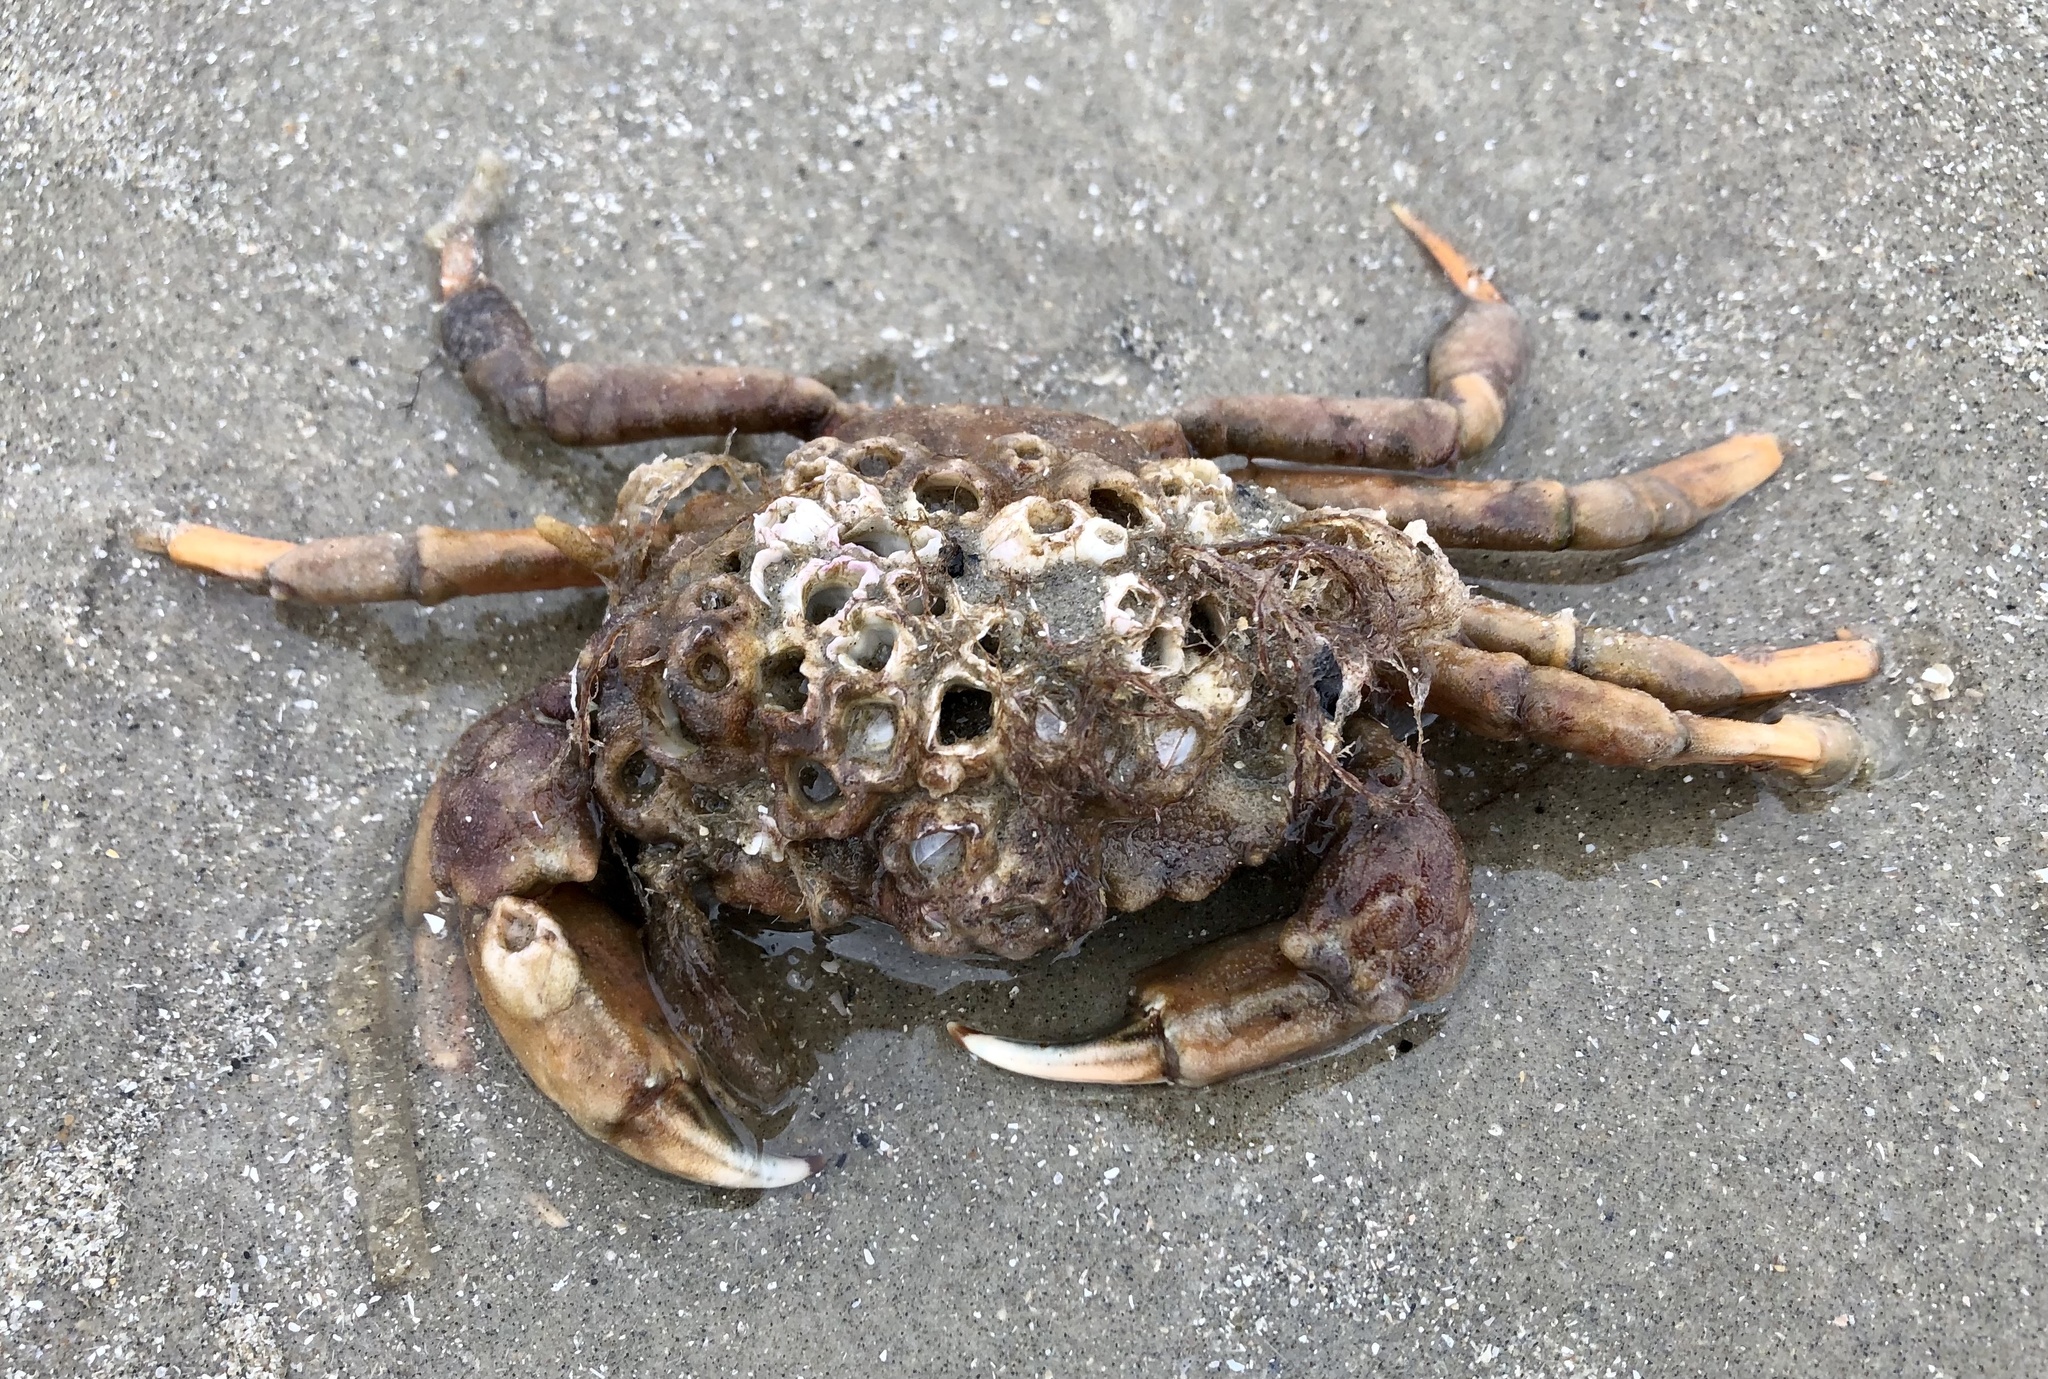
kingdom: Animalia
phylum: Arthropoda
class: Malacostraca
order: Decapoda
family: Carcinidae
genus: Carcinus
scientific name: Carcinus maenas
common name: European green crab
